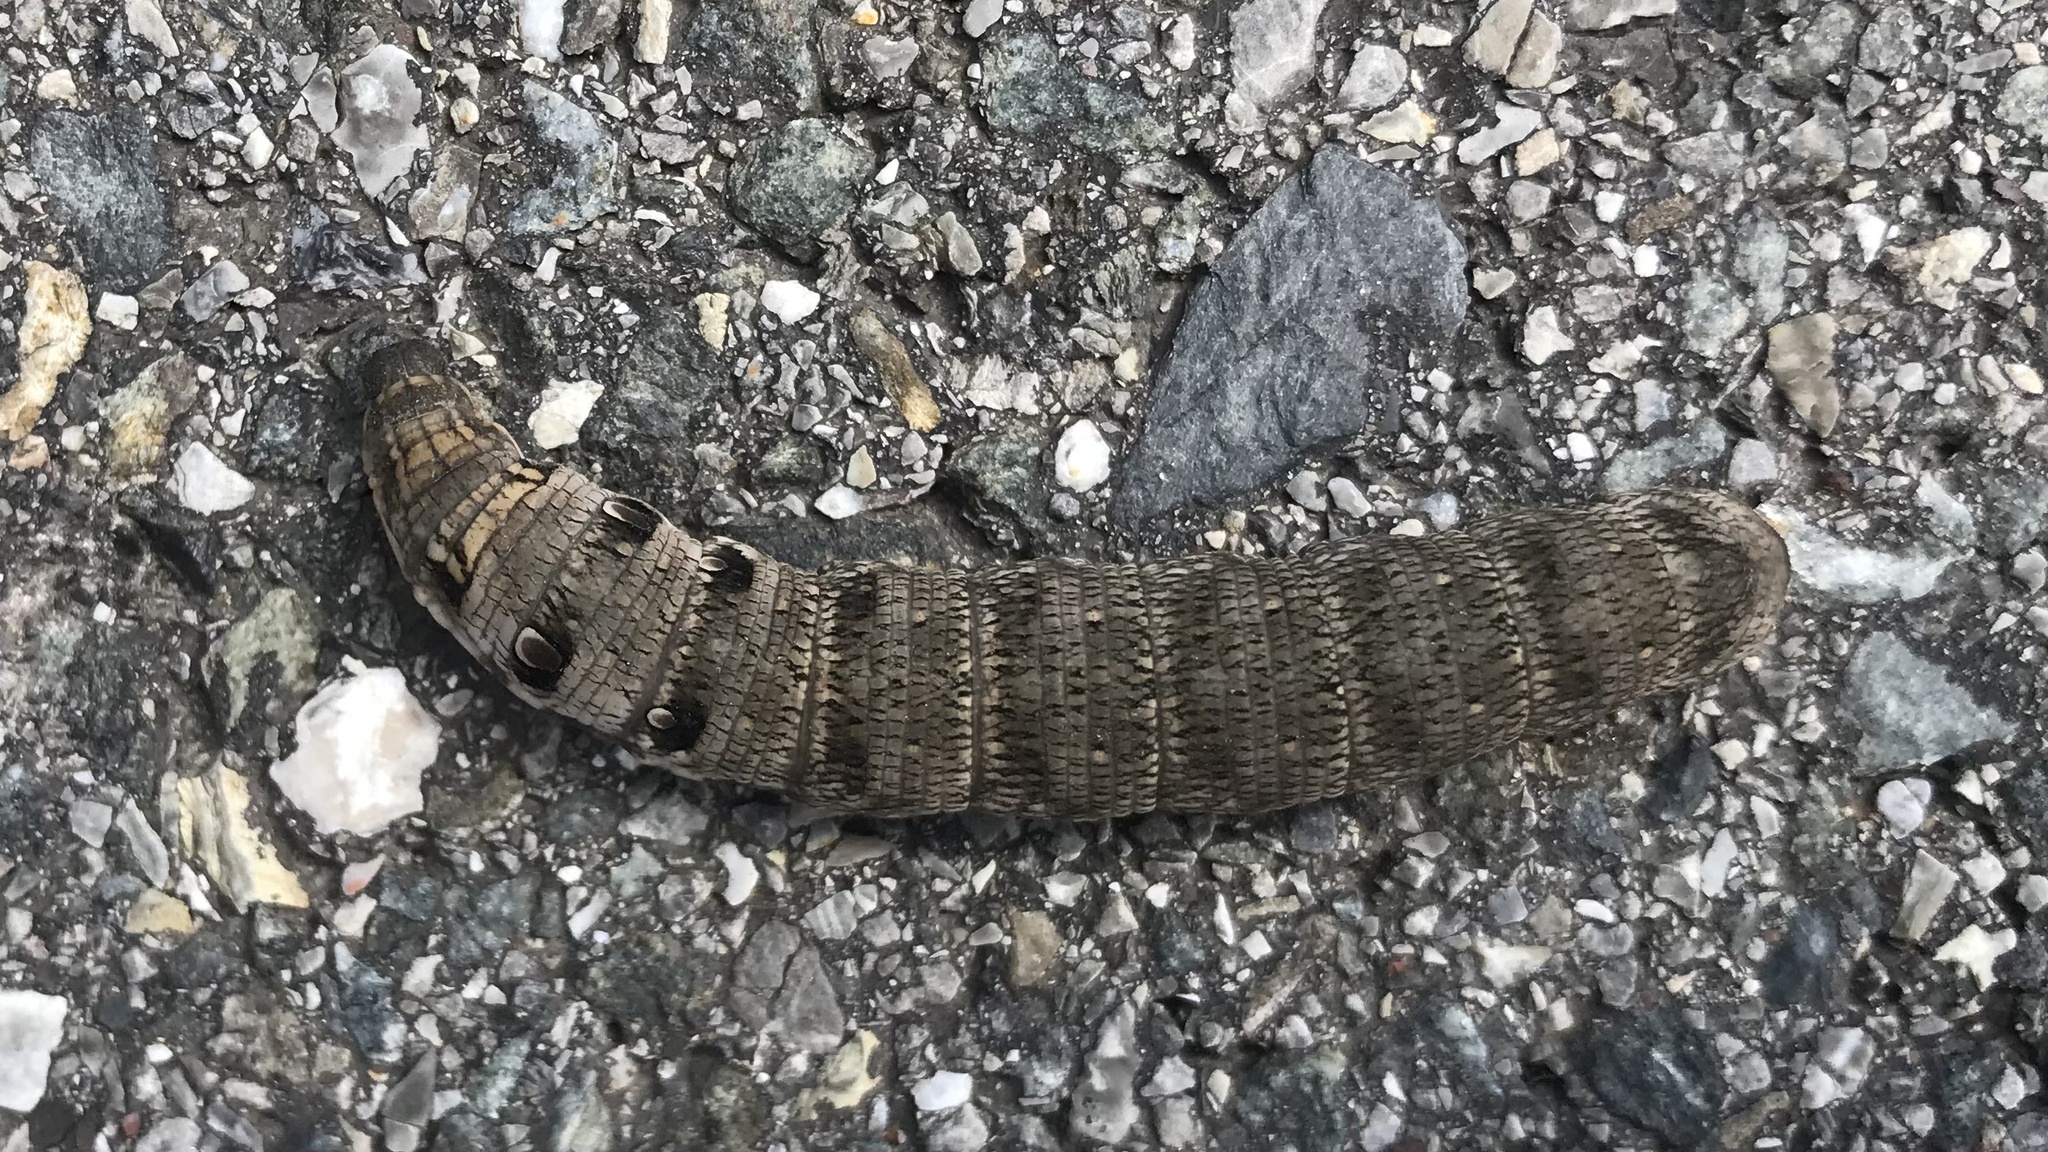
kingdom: Animalia
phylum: Arthropoda
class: Insecta
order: Lepidoptera
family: Sphingidae
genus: Deilephila
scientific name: Deilephila porcellus
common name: Small elephant hawk-moth
